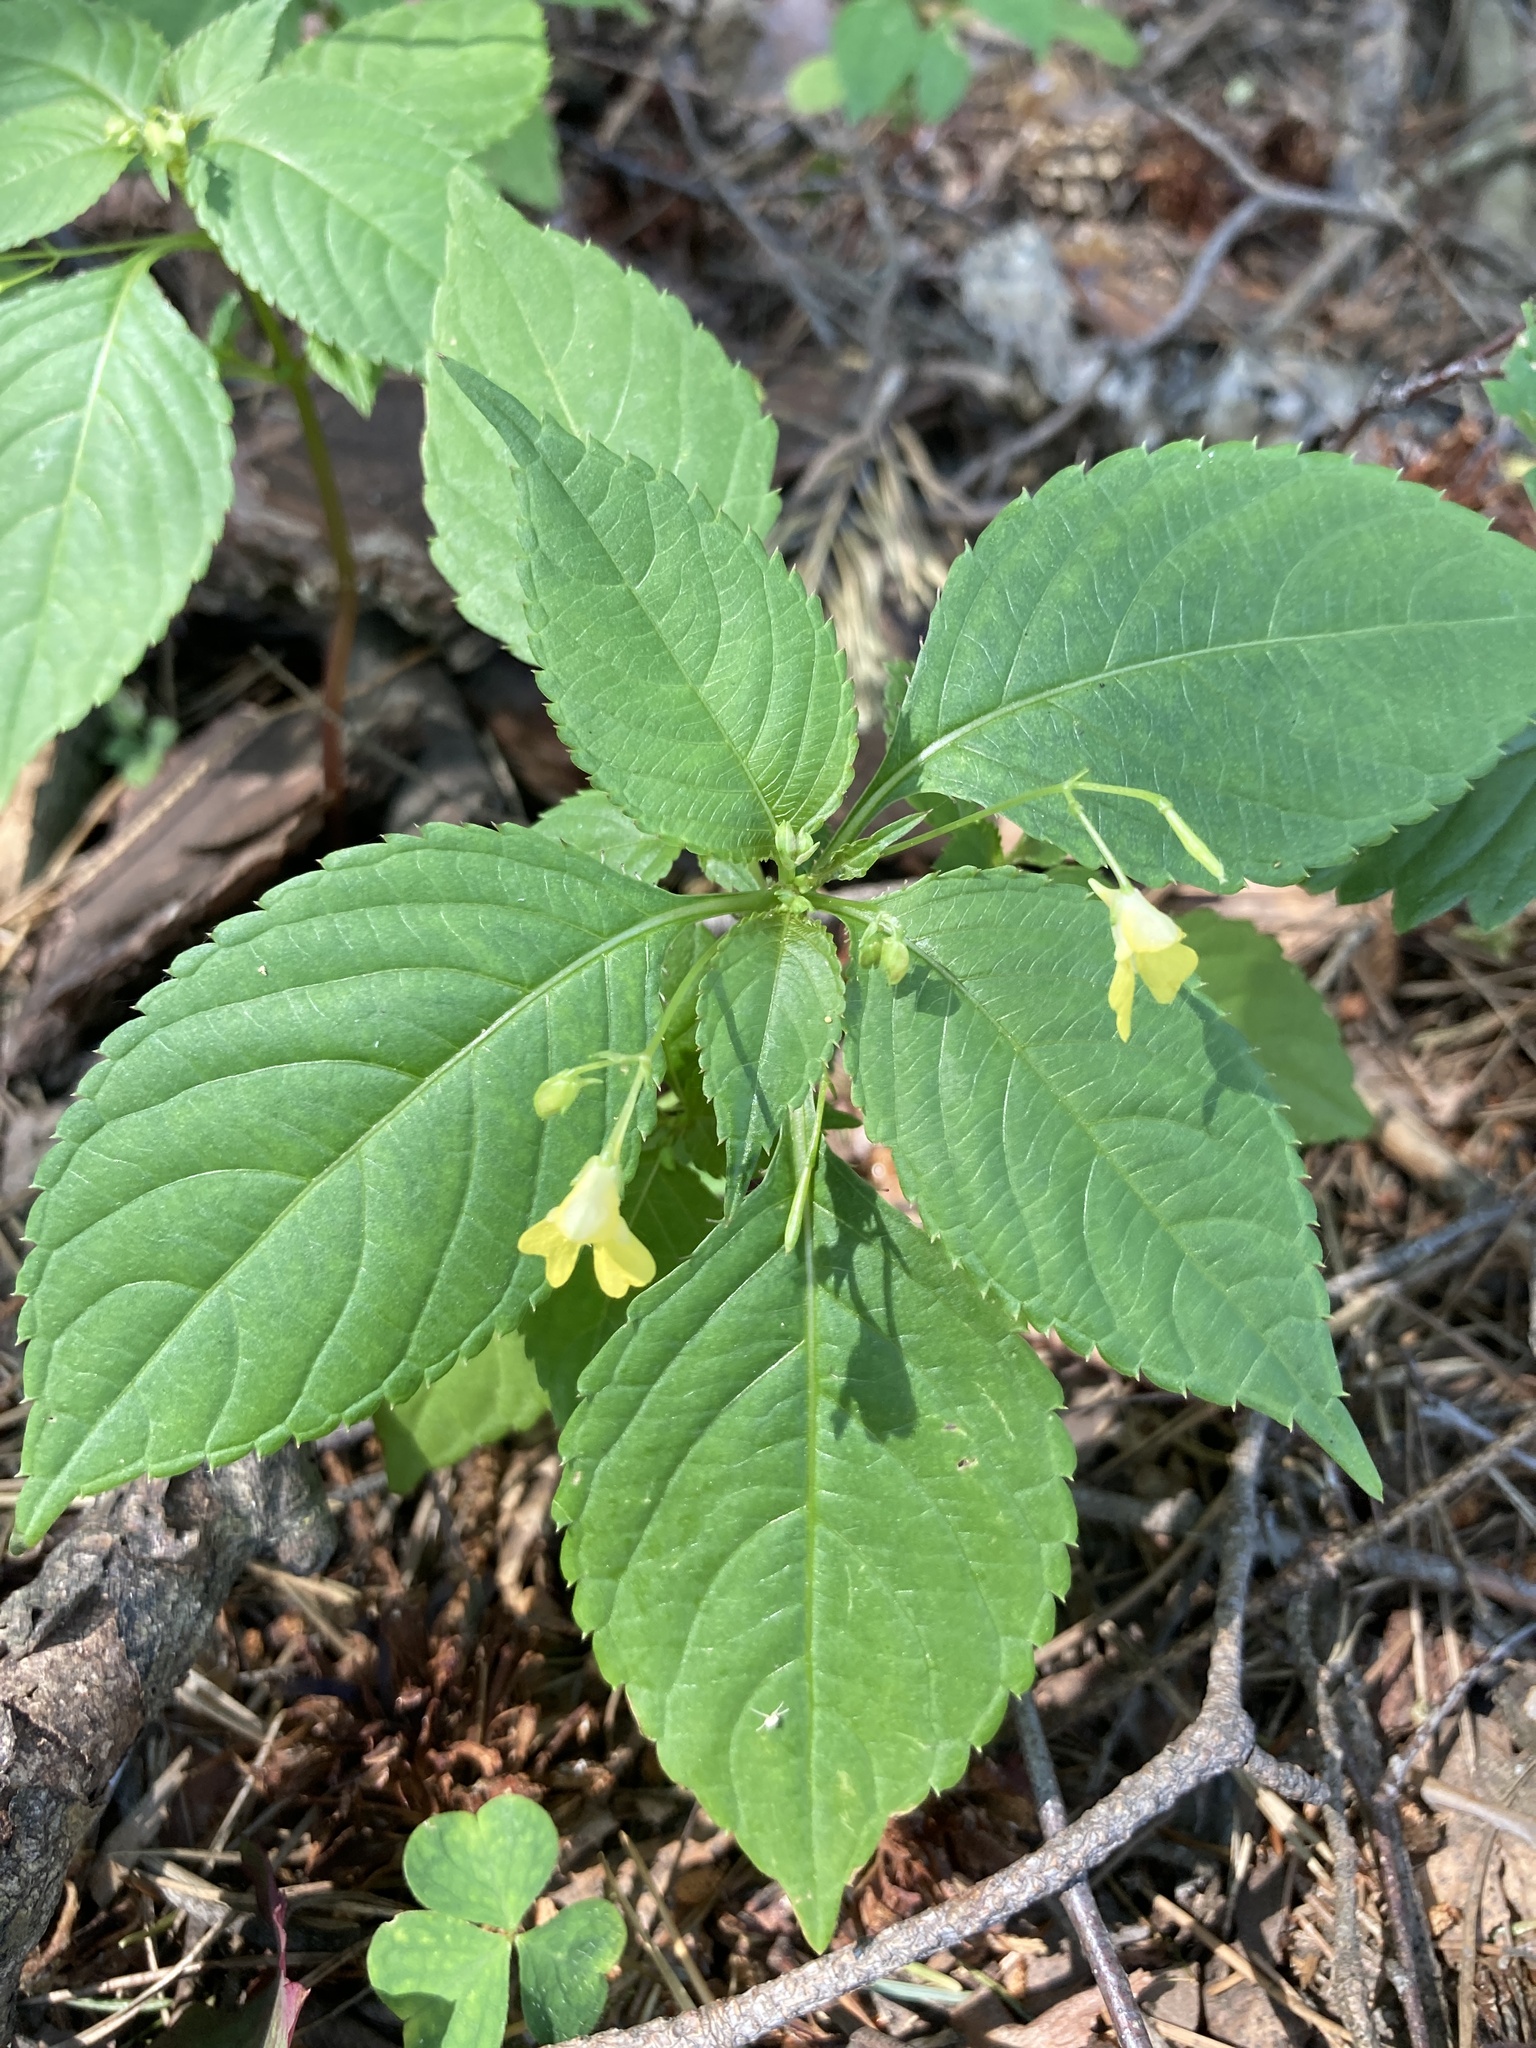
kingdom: Plantae
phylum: Tracheophyta
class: Magnoliopsida
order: Ericales
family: Balsaminaceae
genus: Impatiens
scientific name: Impatiens parviflora
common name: Small balsam
